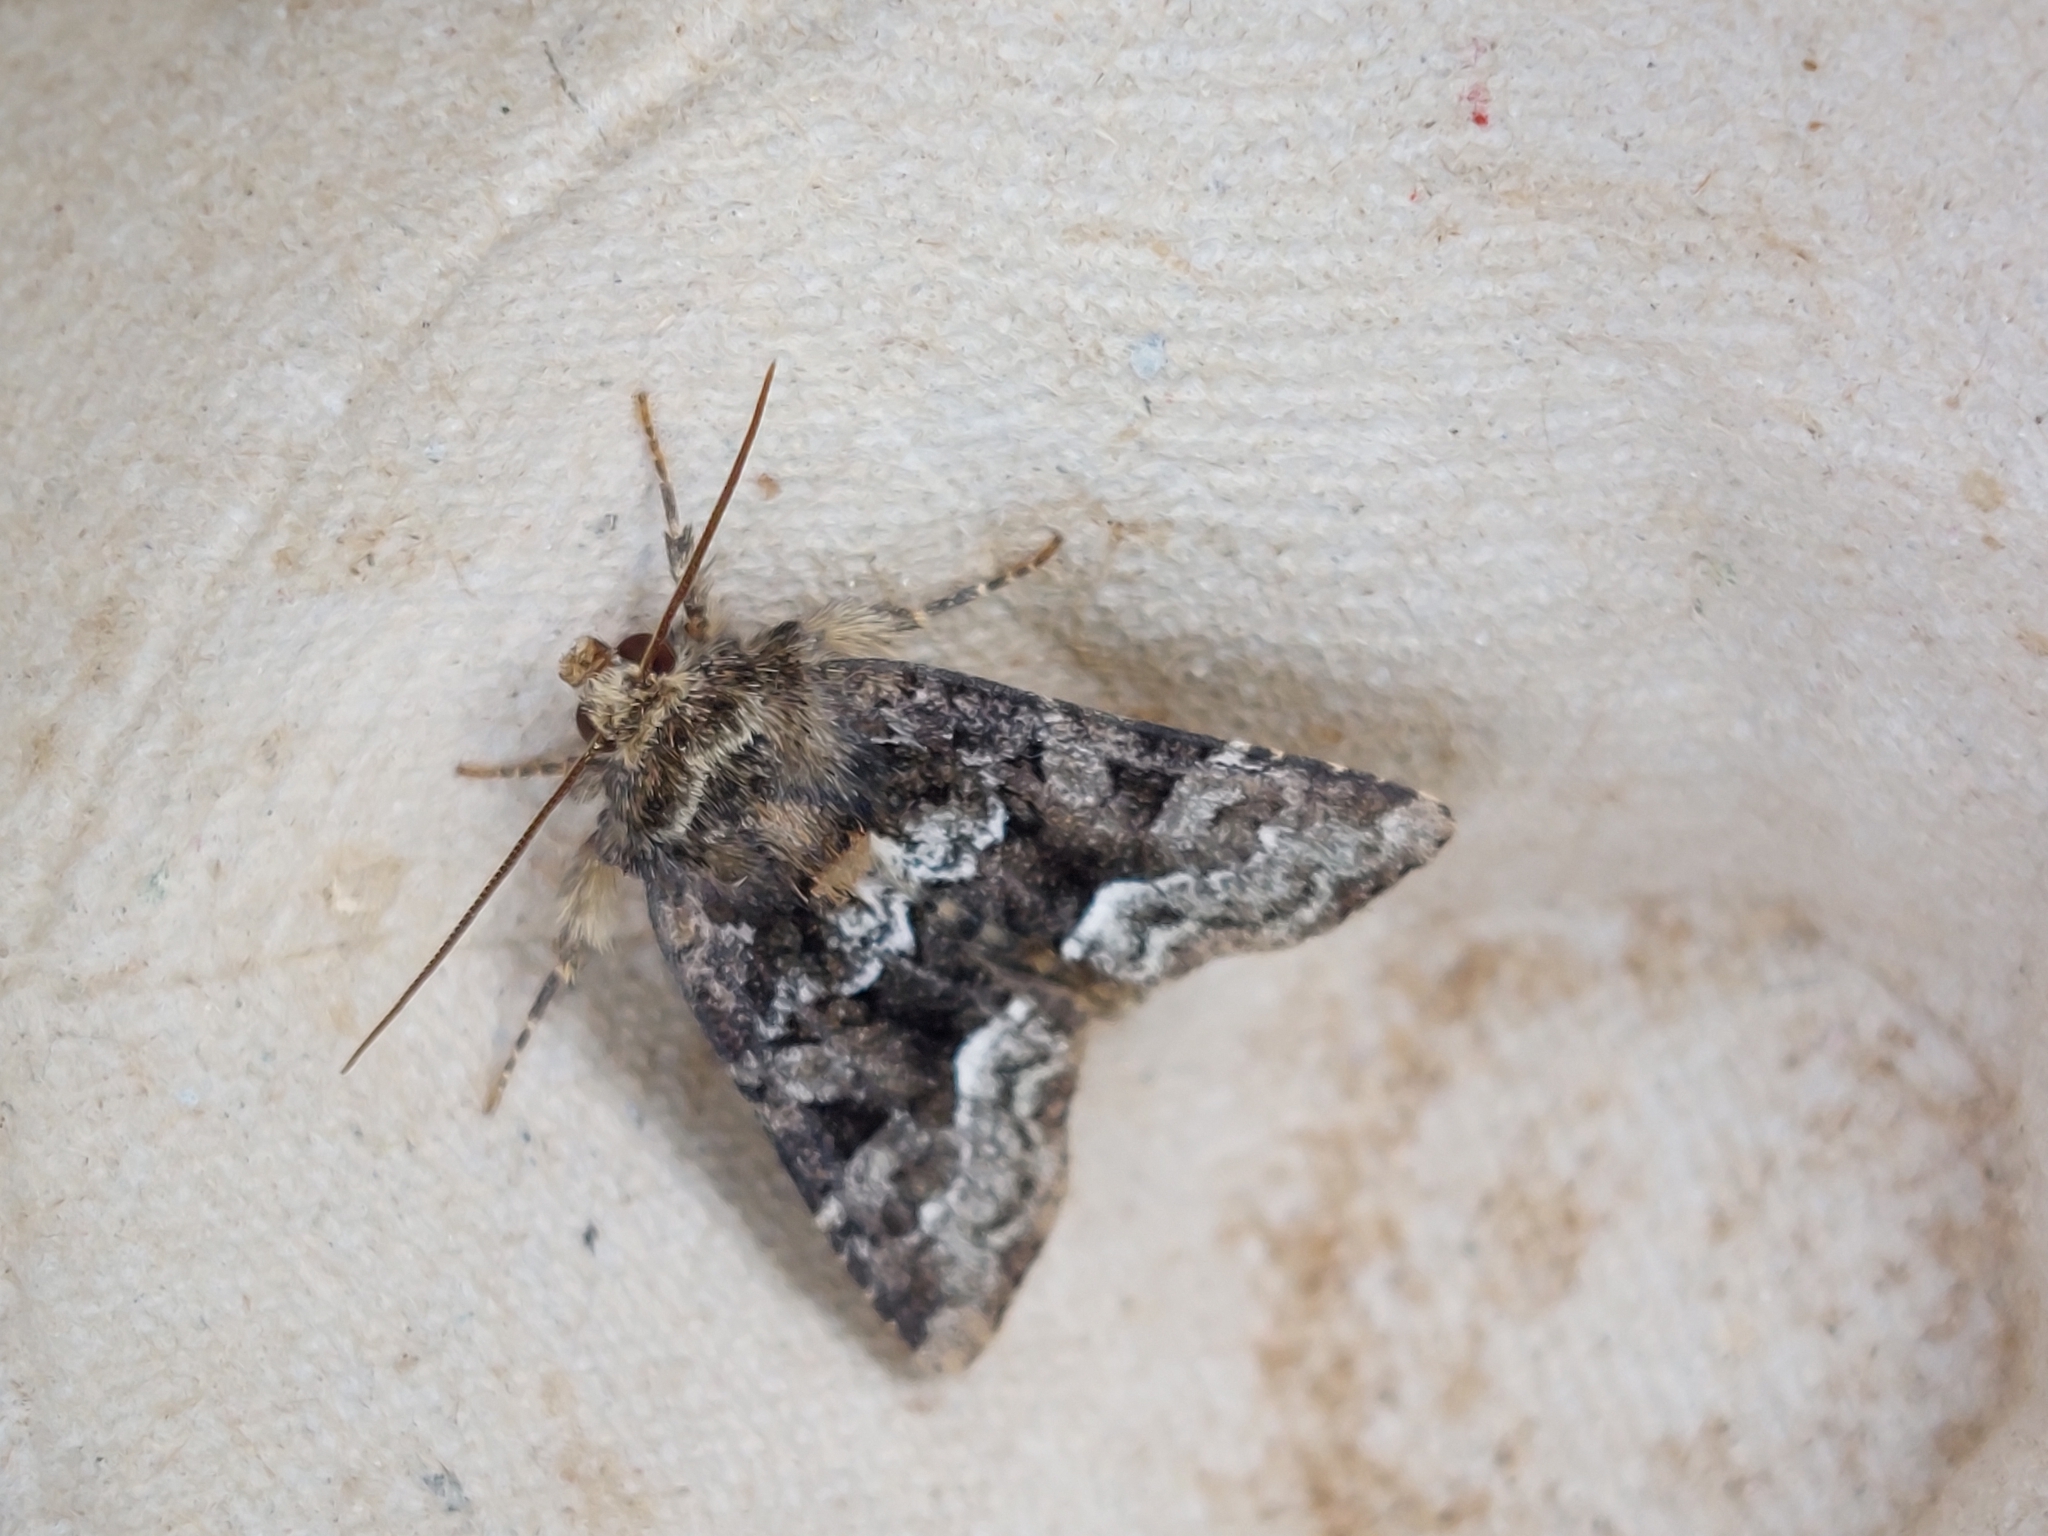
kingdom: Animalia
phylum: Arthropoda
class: Insecta
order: Lepidoptera
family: Noctuidae
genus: Oligia
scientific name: Oligia strigilis
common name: Marbled minor
